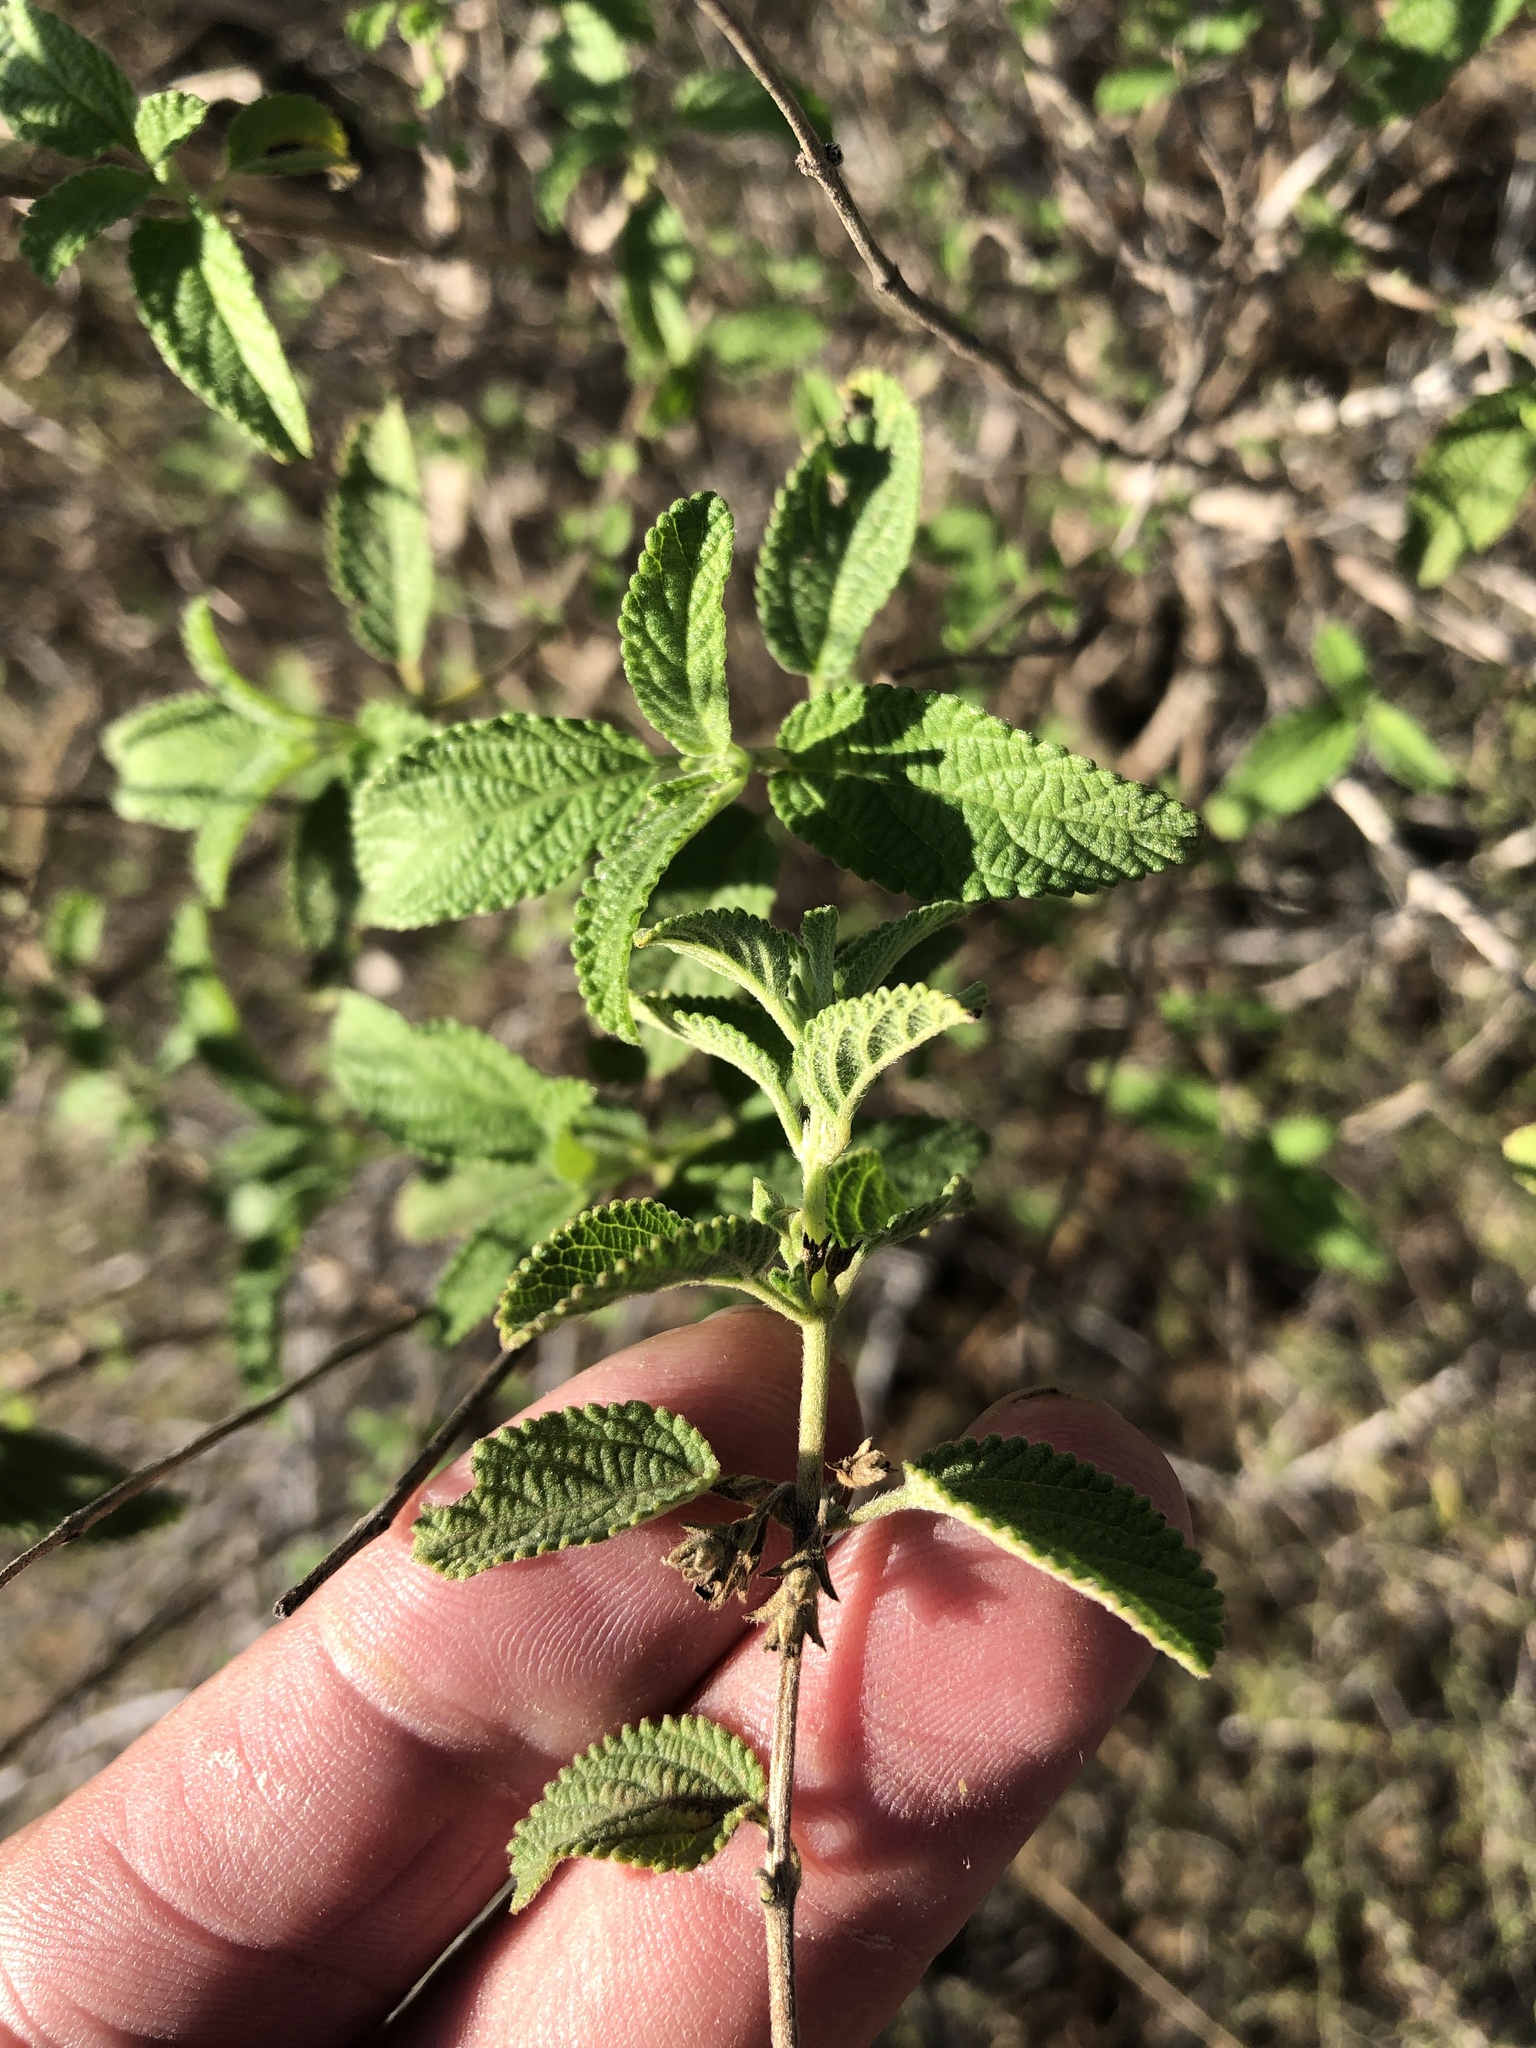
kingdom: Plantae
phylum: Tracheophyta
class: Magnoliopsida
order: Lamiales
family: Verbenaceae
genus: Lippia
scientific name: Lippia origanoides
